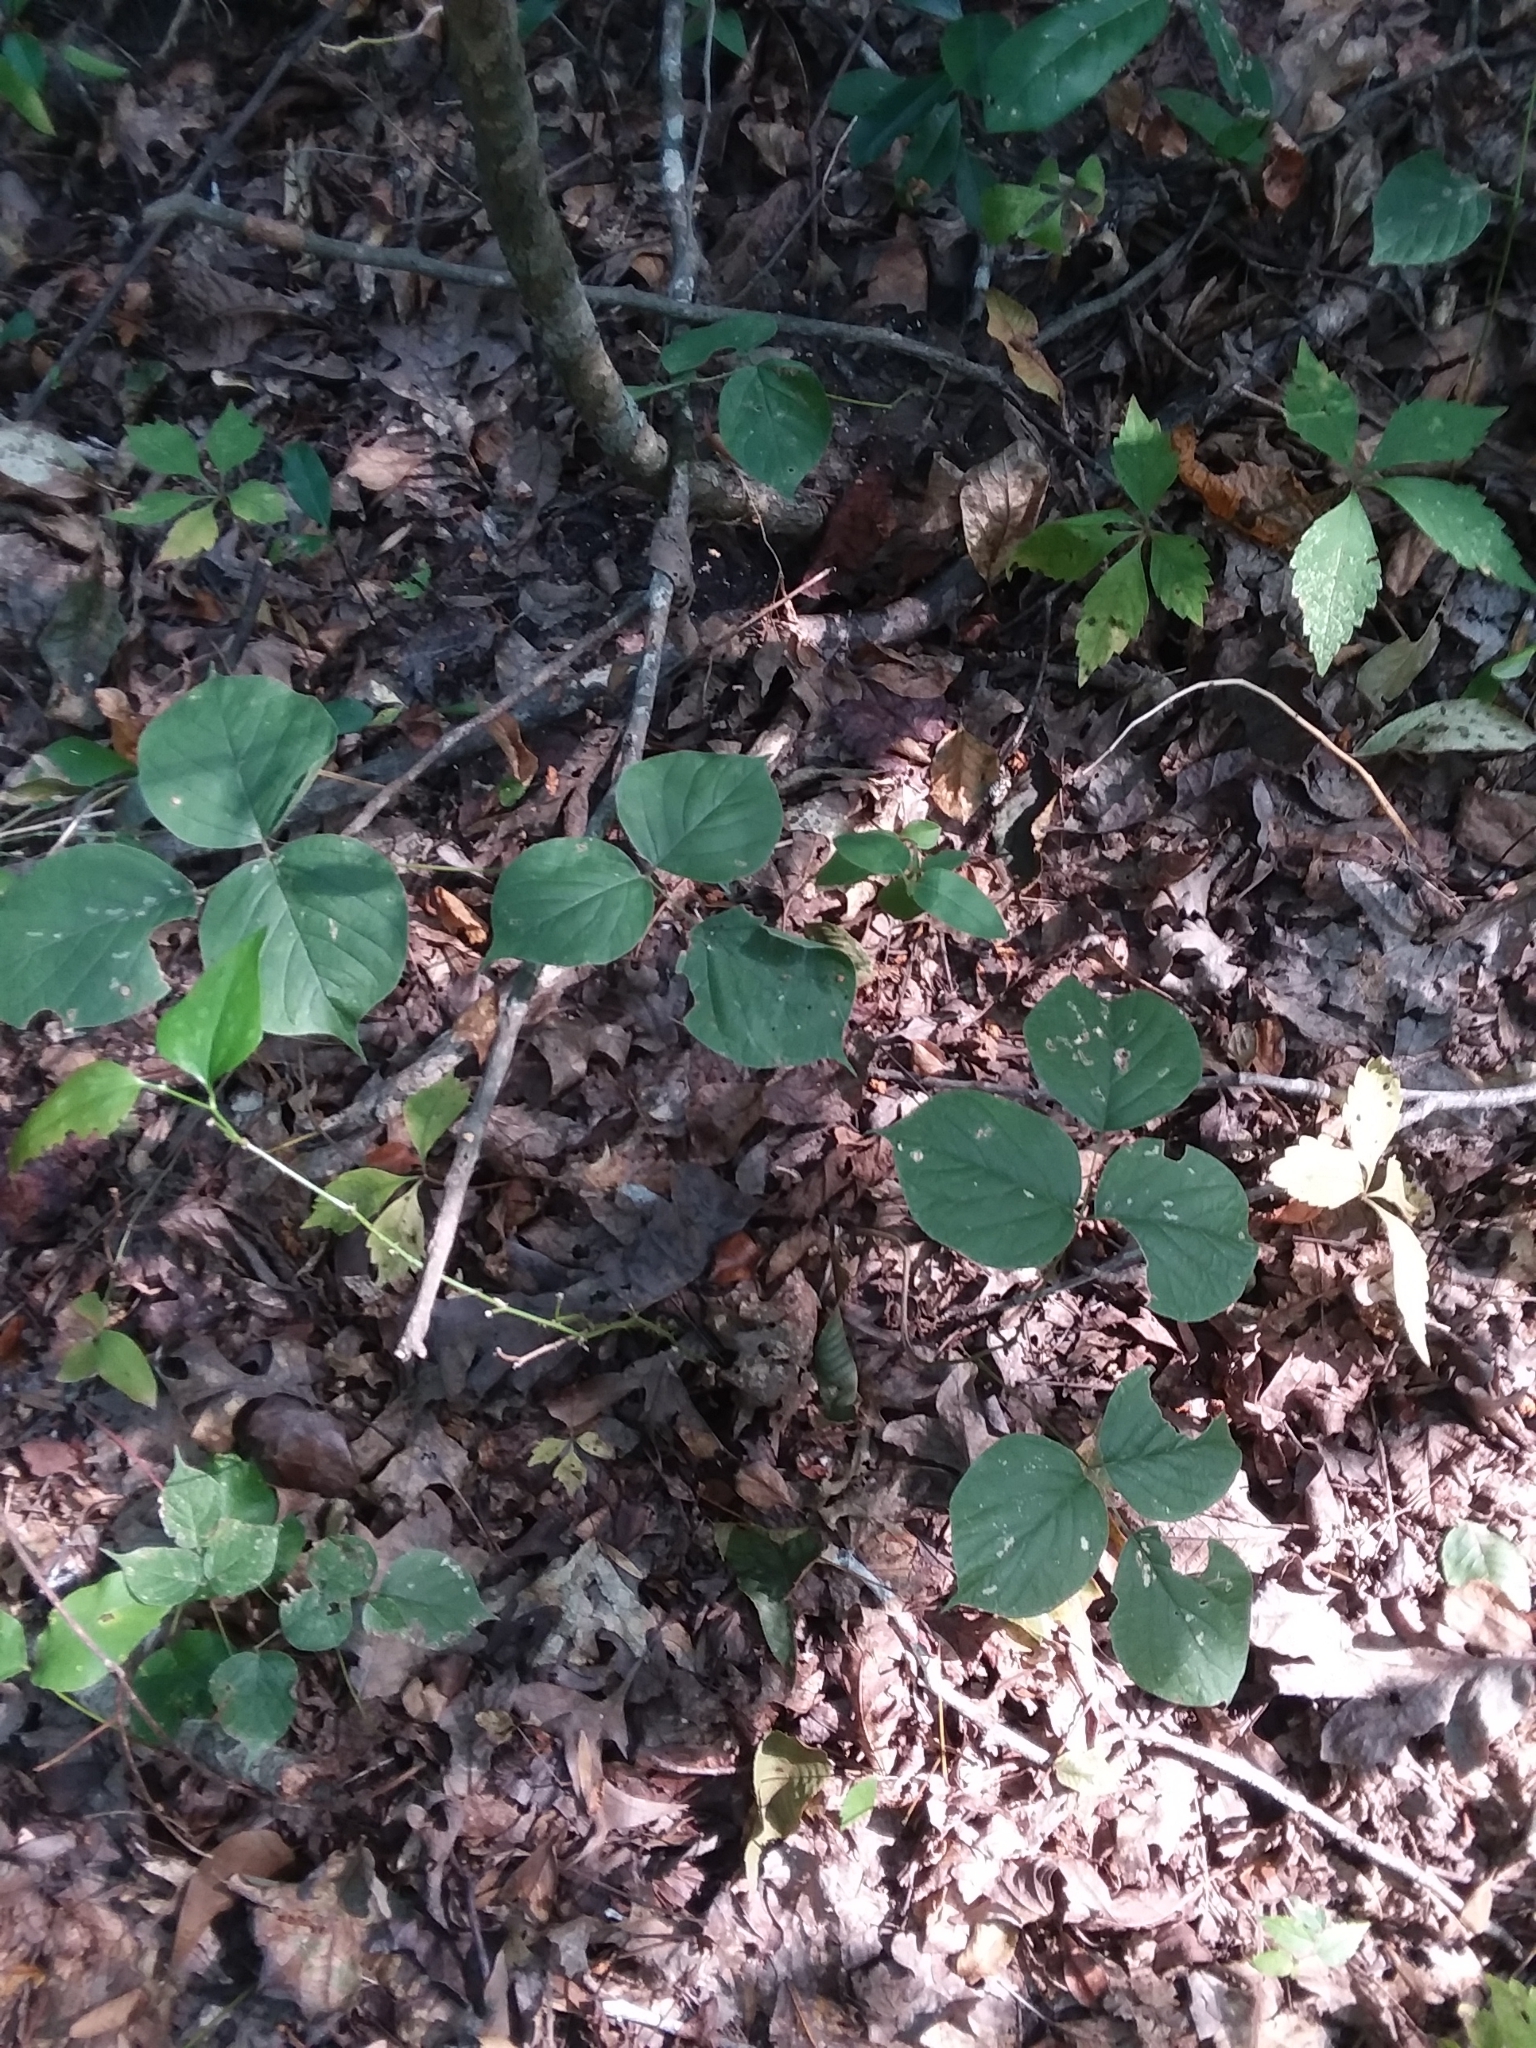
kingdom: Plantae
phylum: Tracheophyta
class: Magnoliopsida
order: Fabales
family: Fabaceae
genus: Lackeya
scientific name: Lackeya multiflora
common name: Boykin's clusterpea
